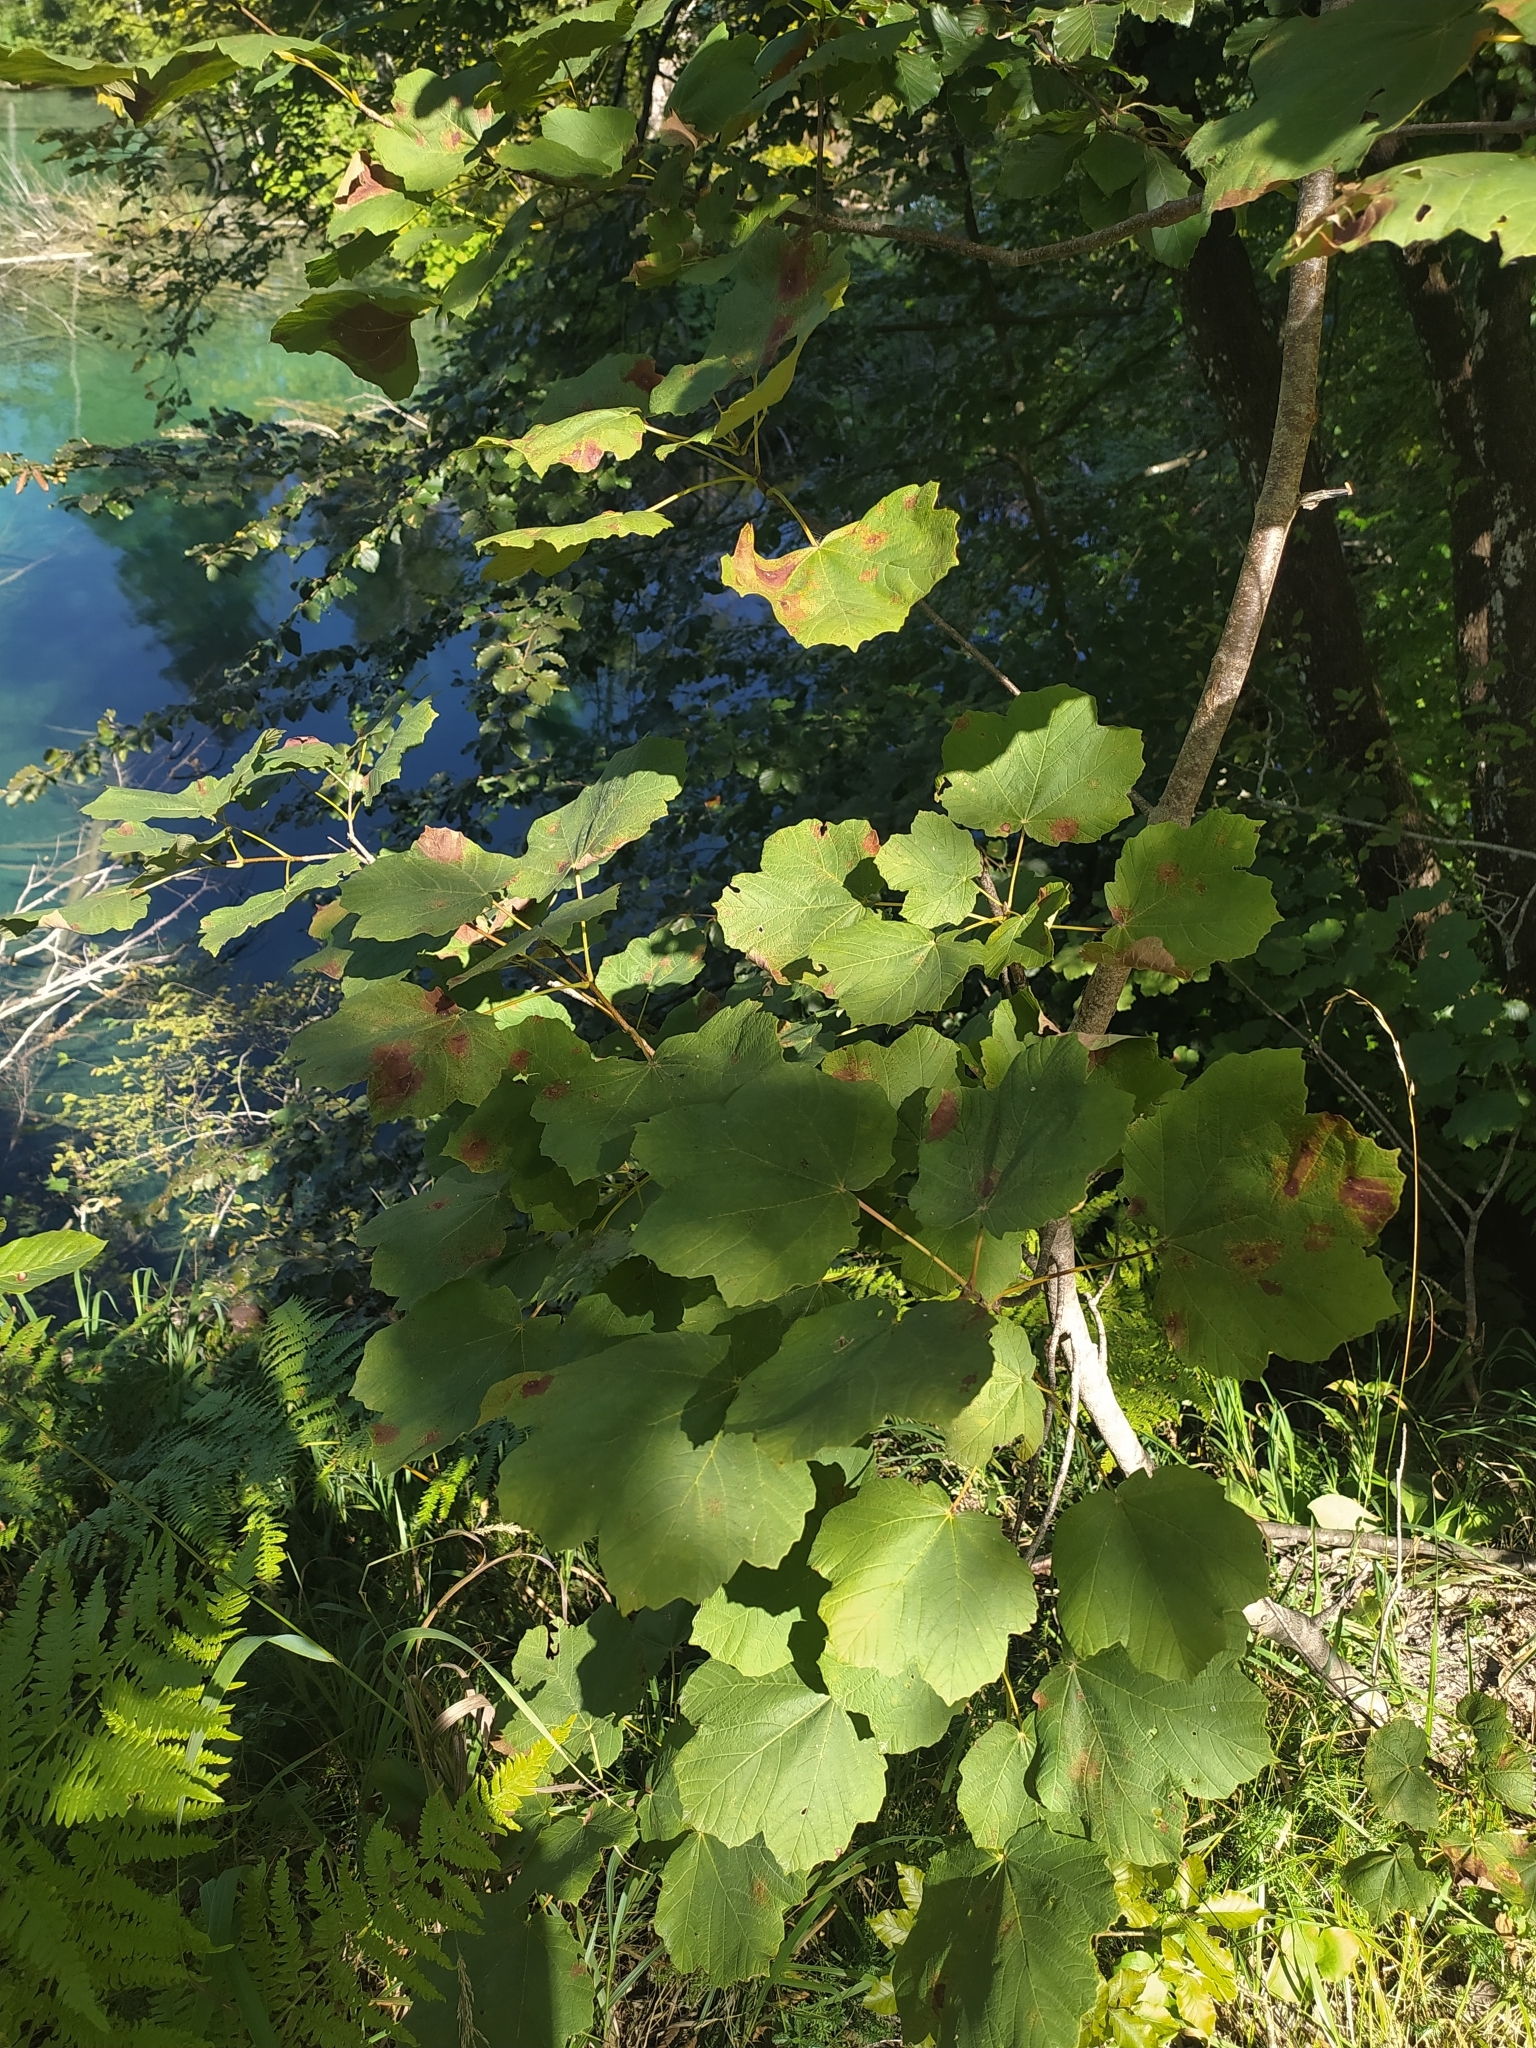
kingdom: Plantae
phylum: Tracheophyta
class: Magnoliopsida
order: Sapindales
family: Sapindaceae
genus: Acer
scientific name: Acer obtusatum
